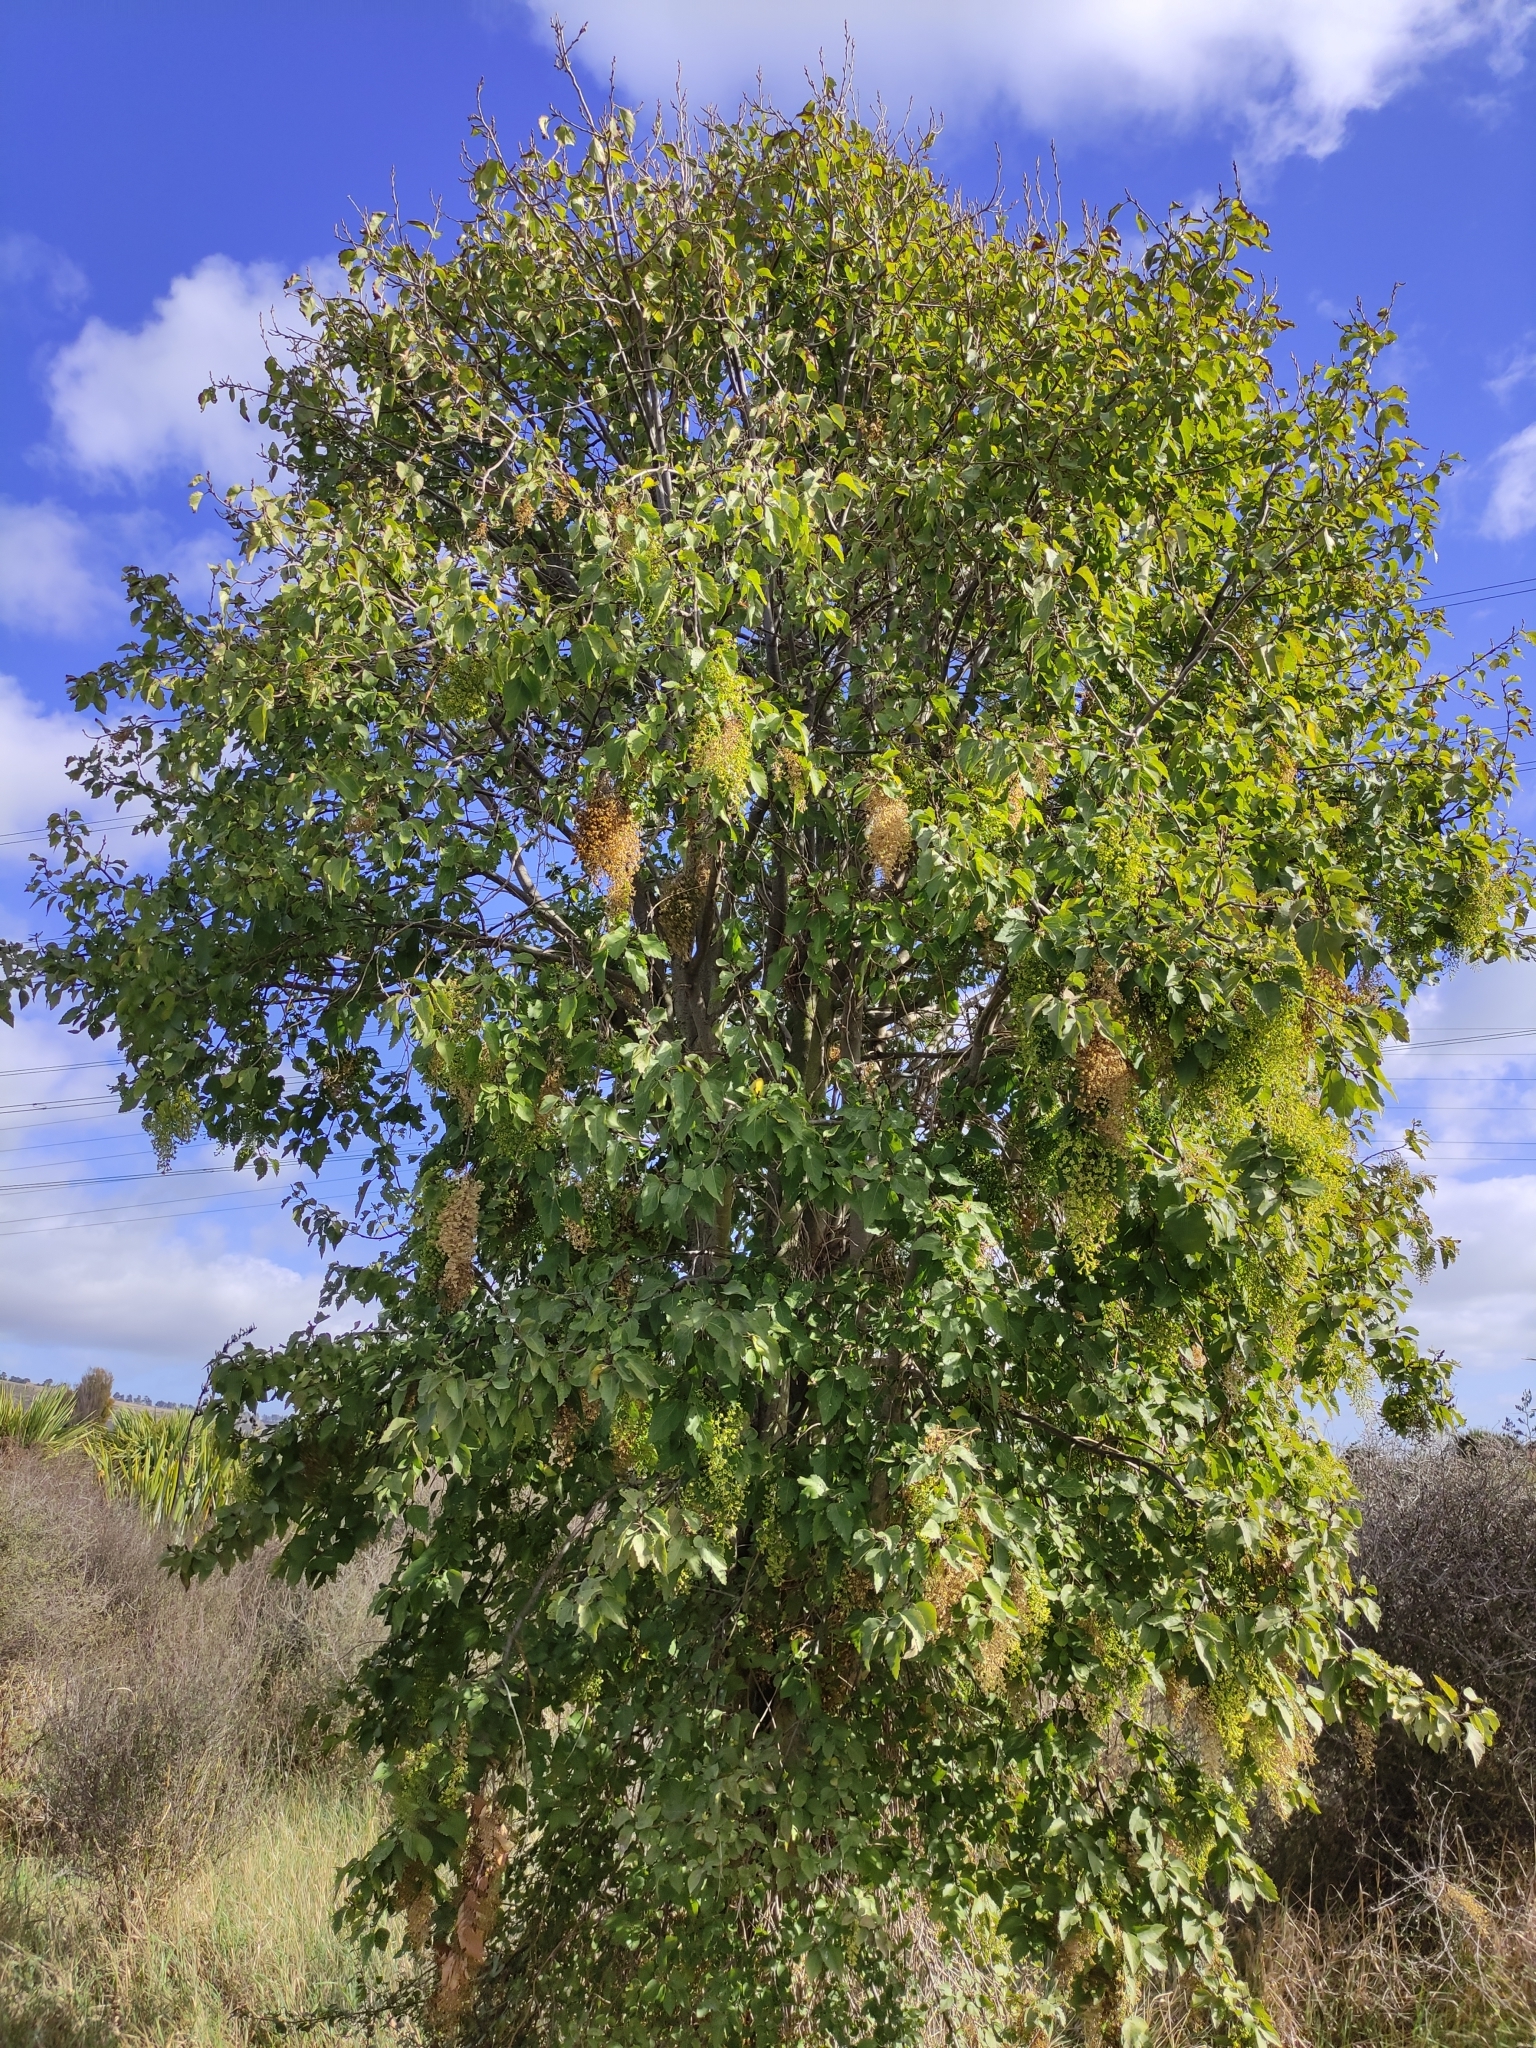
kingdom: Plantae
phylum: Tracheophyta
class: Magnoliopsida
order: Malvales
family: Malvaceae
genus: Plagianthus
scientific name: Plagianthus regius
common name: Manatu
